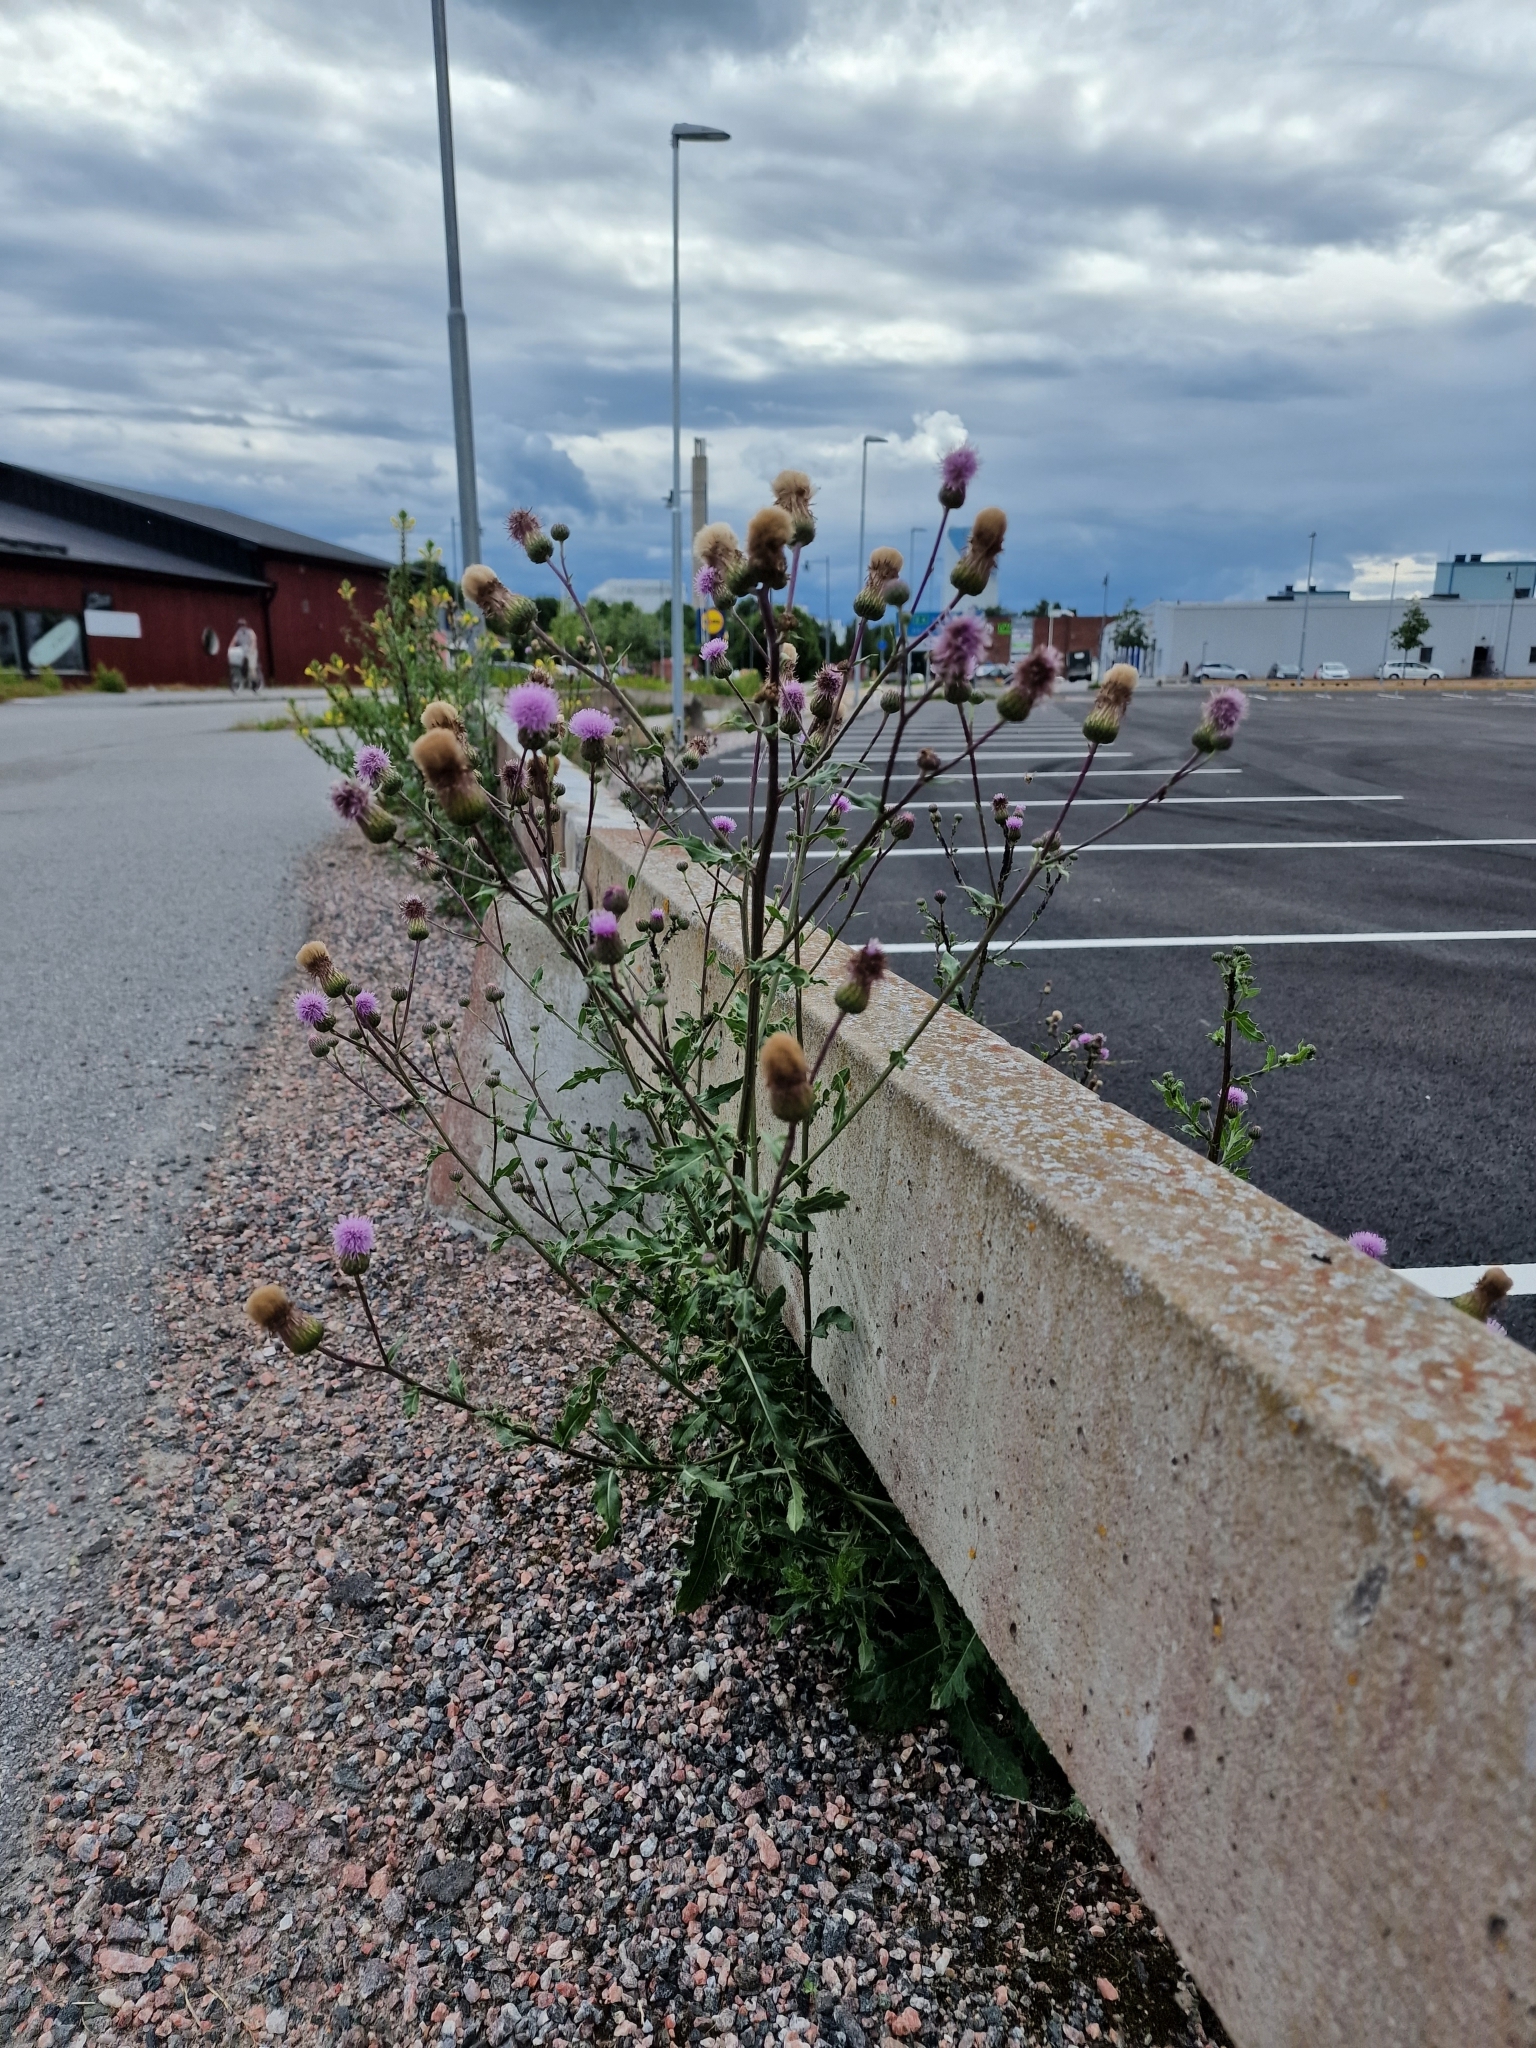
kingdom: Plantae
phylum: Tracheophyta
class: Magnoliopsida
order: Asterales
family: Asteraceae
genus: Cirsium
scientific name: Cirsium arvense
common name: Creeping thistle
